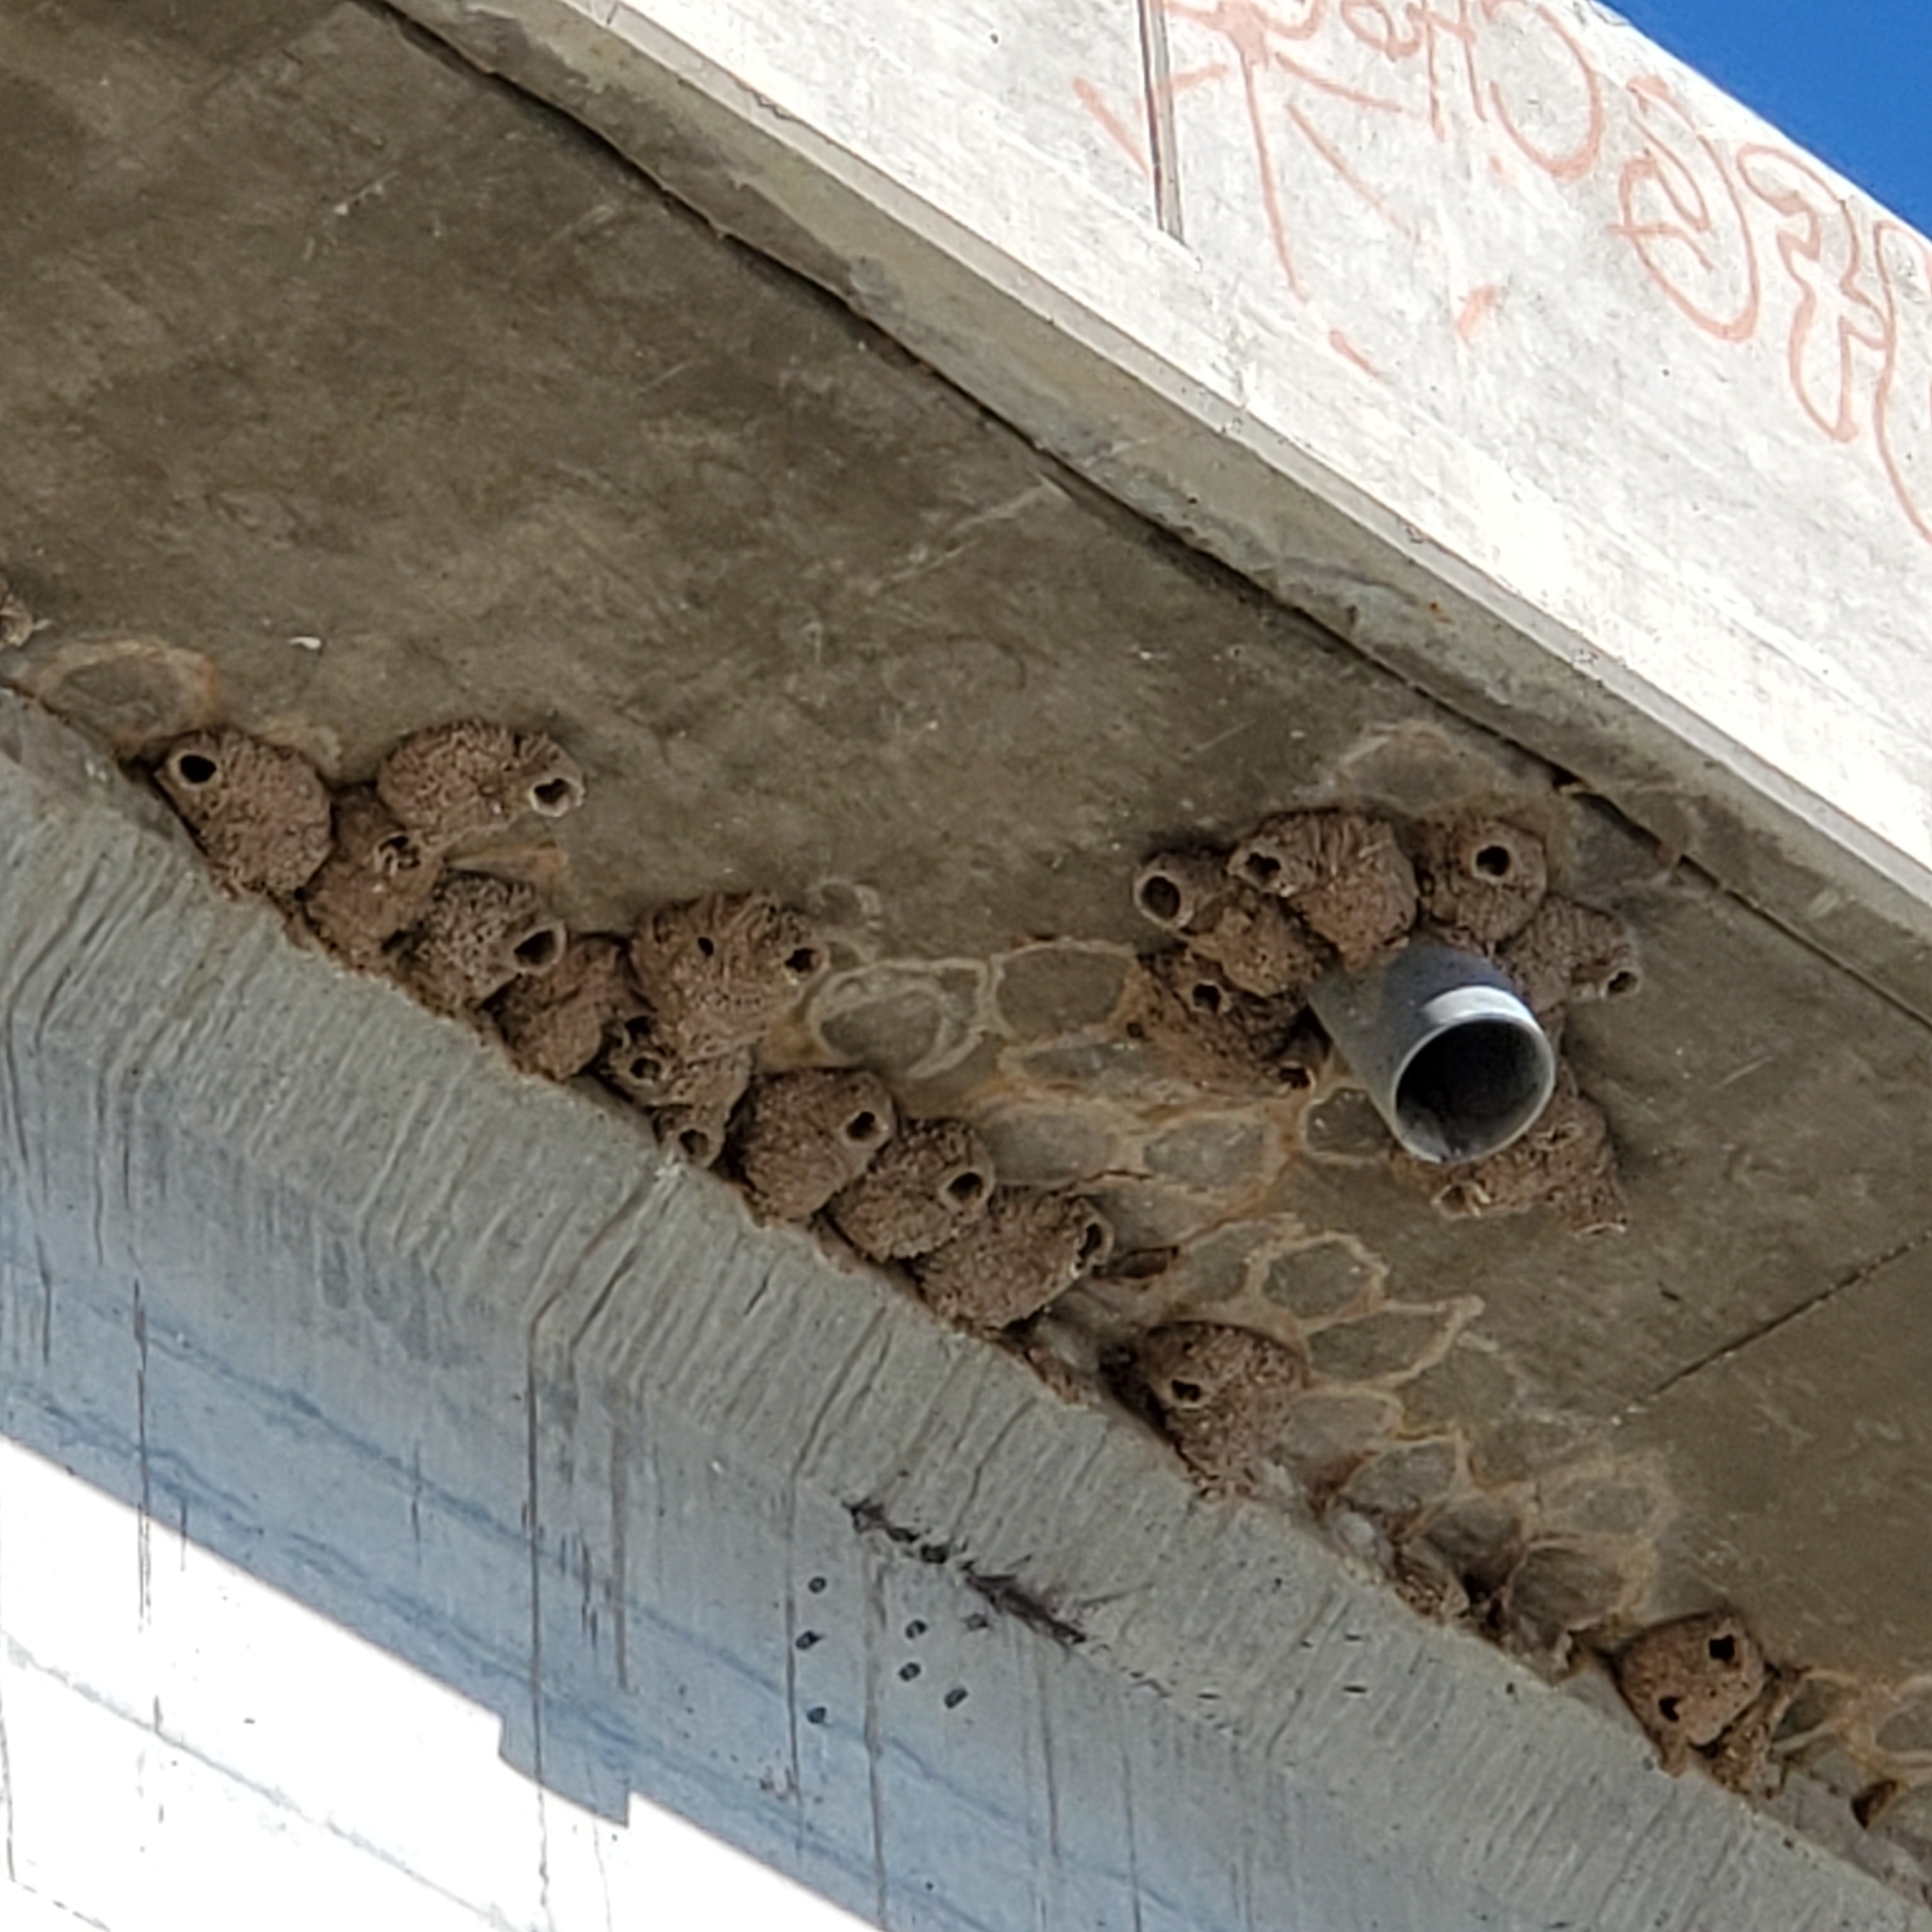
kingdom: Animalia
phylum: Chordata
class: Aves
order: Passeriformes
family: Hirundinidae
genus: Petrochelidon
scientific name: Petrochelidon pyrrhonota
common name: American cliff swallow
